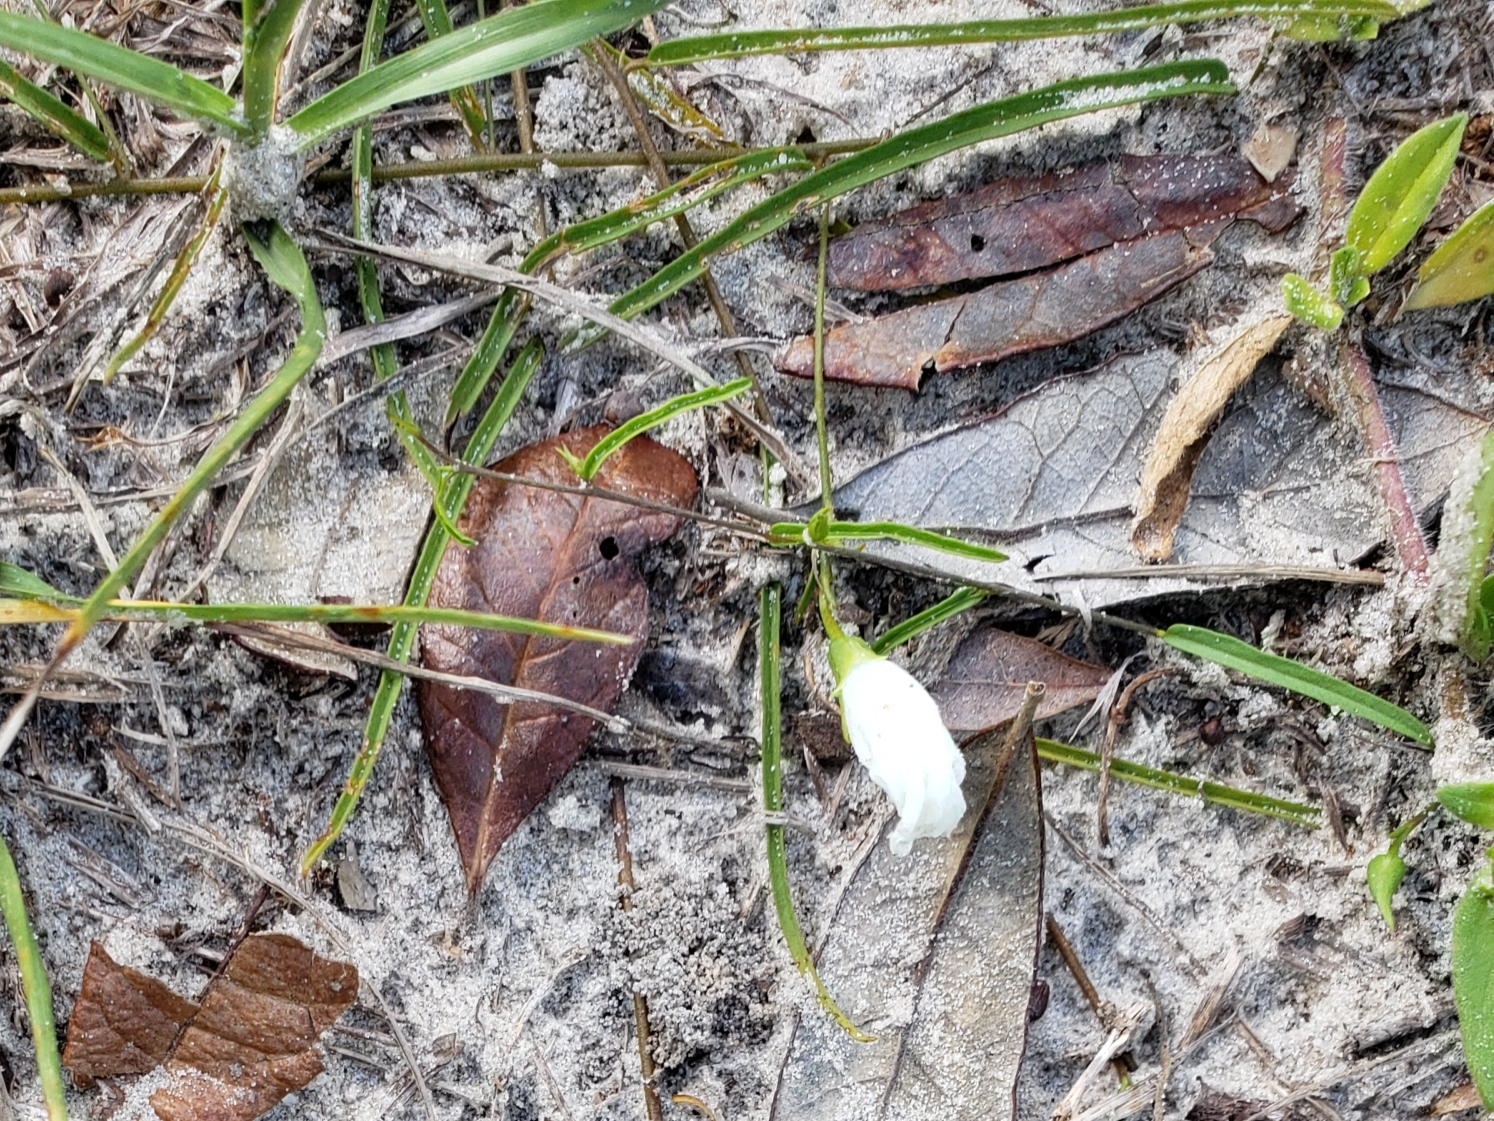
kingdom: Plantae
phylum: Tracheophyta
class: Magnoliopsida
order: Solanales
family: Convolvulaceae
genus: Stylisma
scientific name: Stylisma patens
